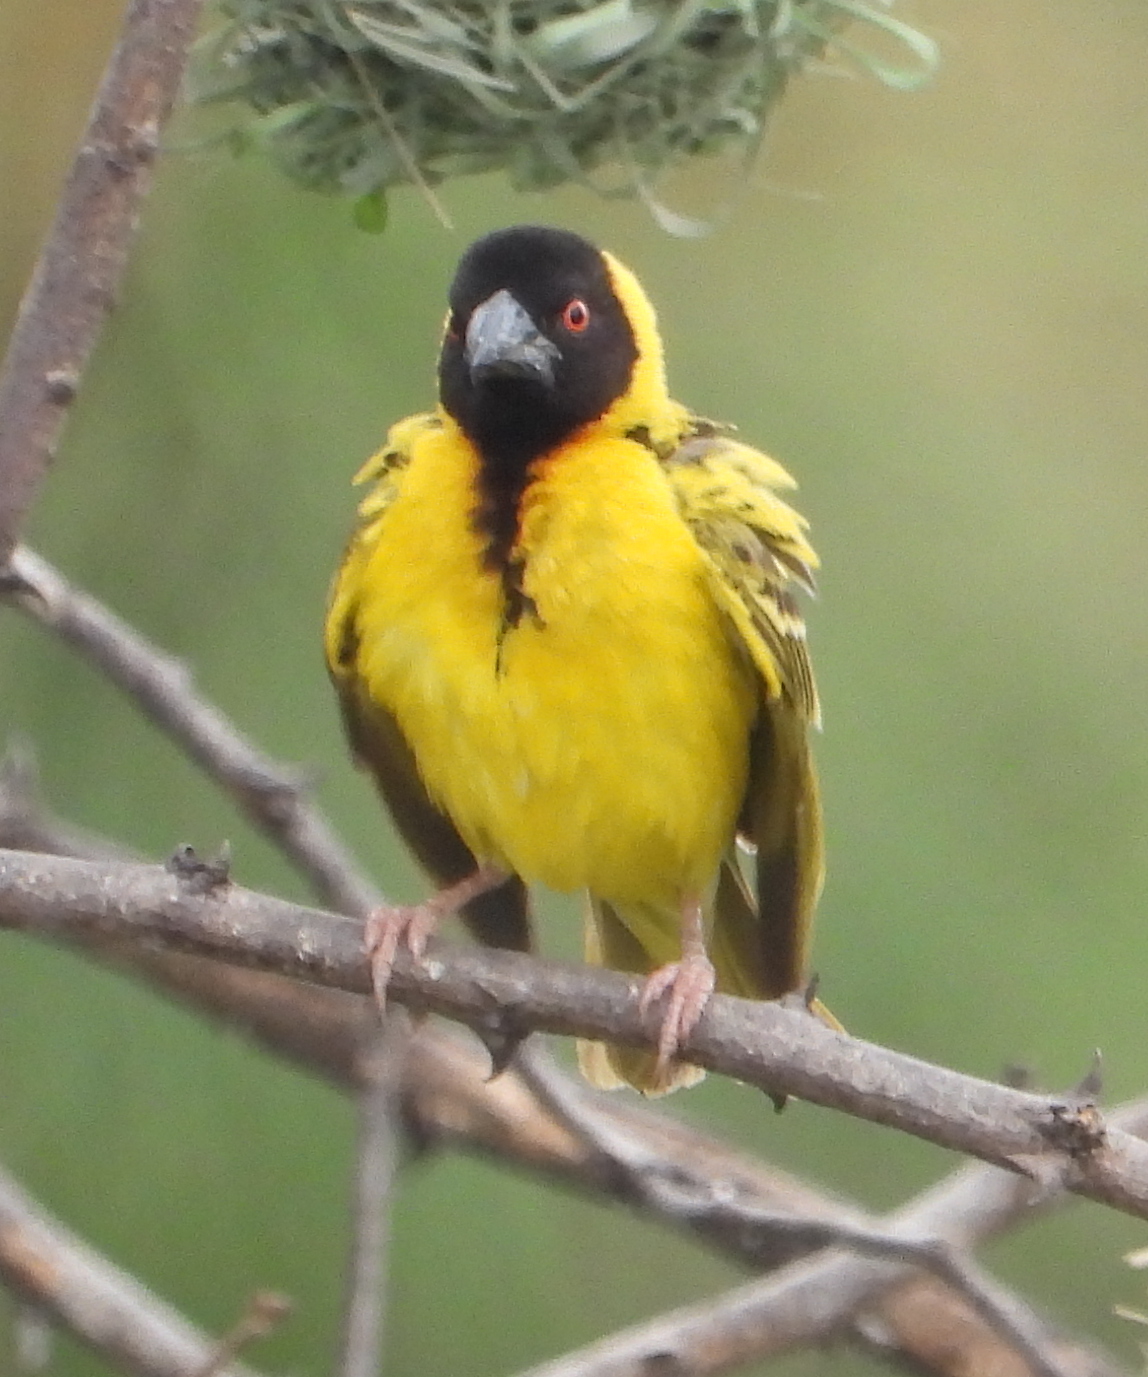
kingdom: Animalia
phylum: Chordata
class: Aves
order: Passeriformes
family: Ploceidae
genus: Ploceus
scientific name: Ploceus cucullatus
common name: Village weaver
